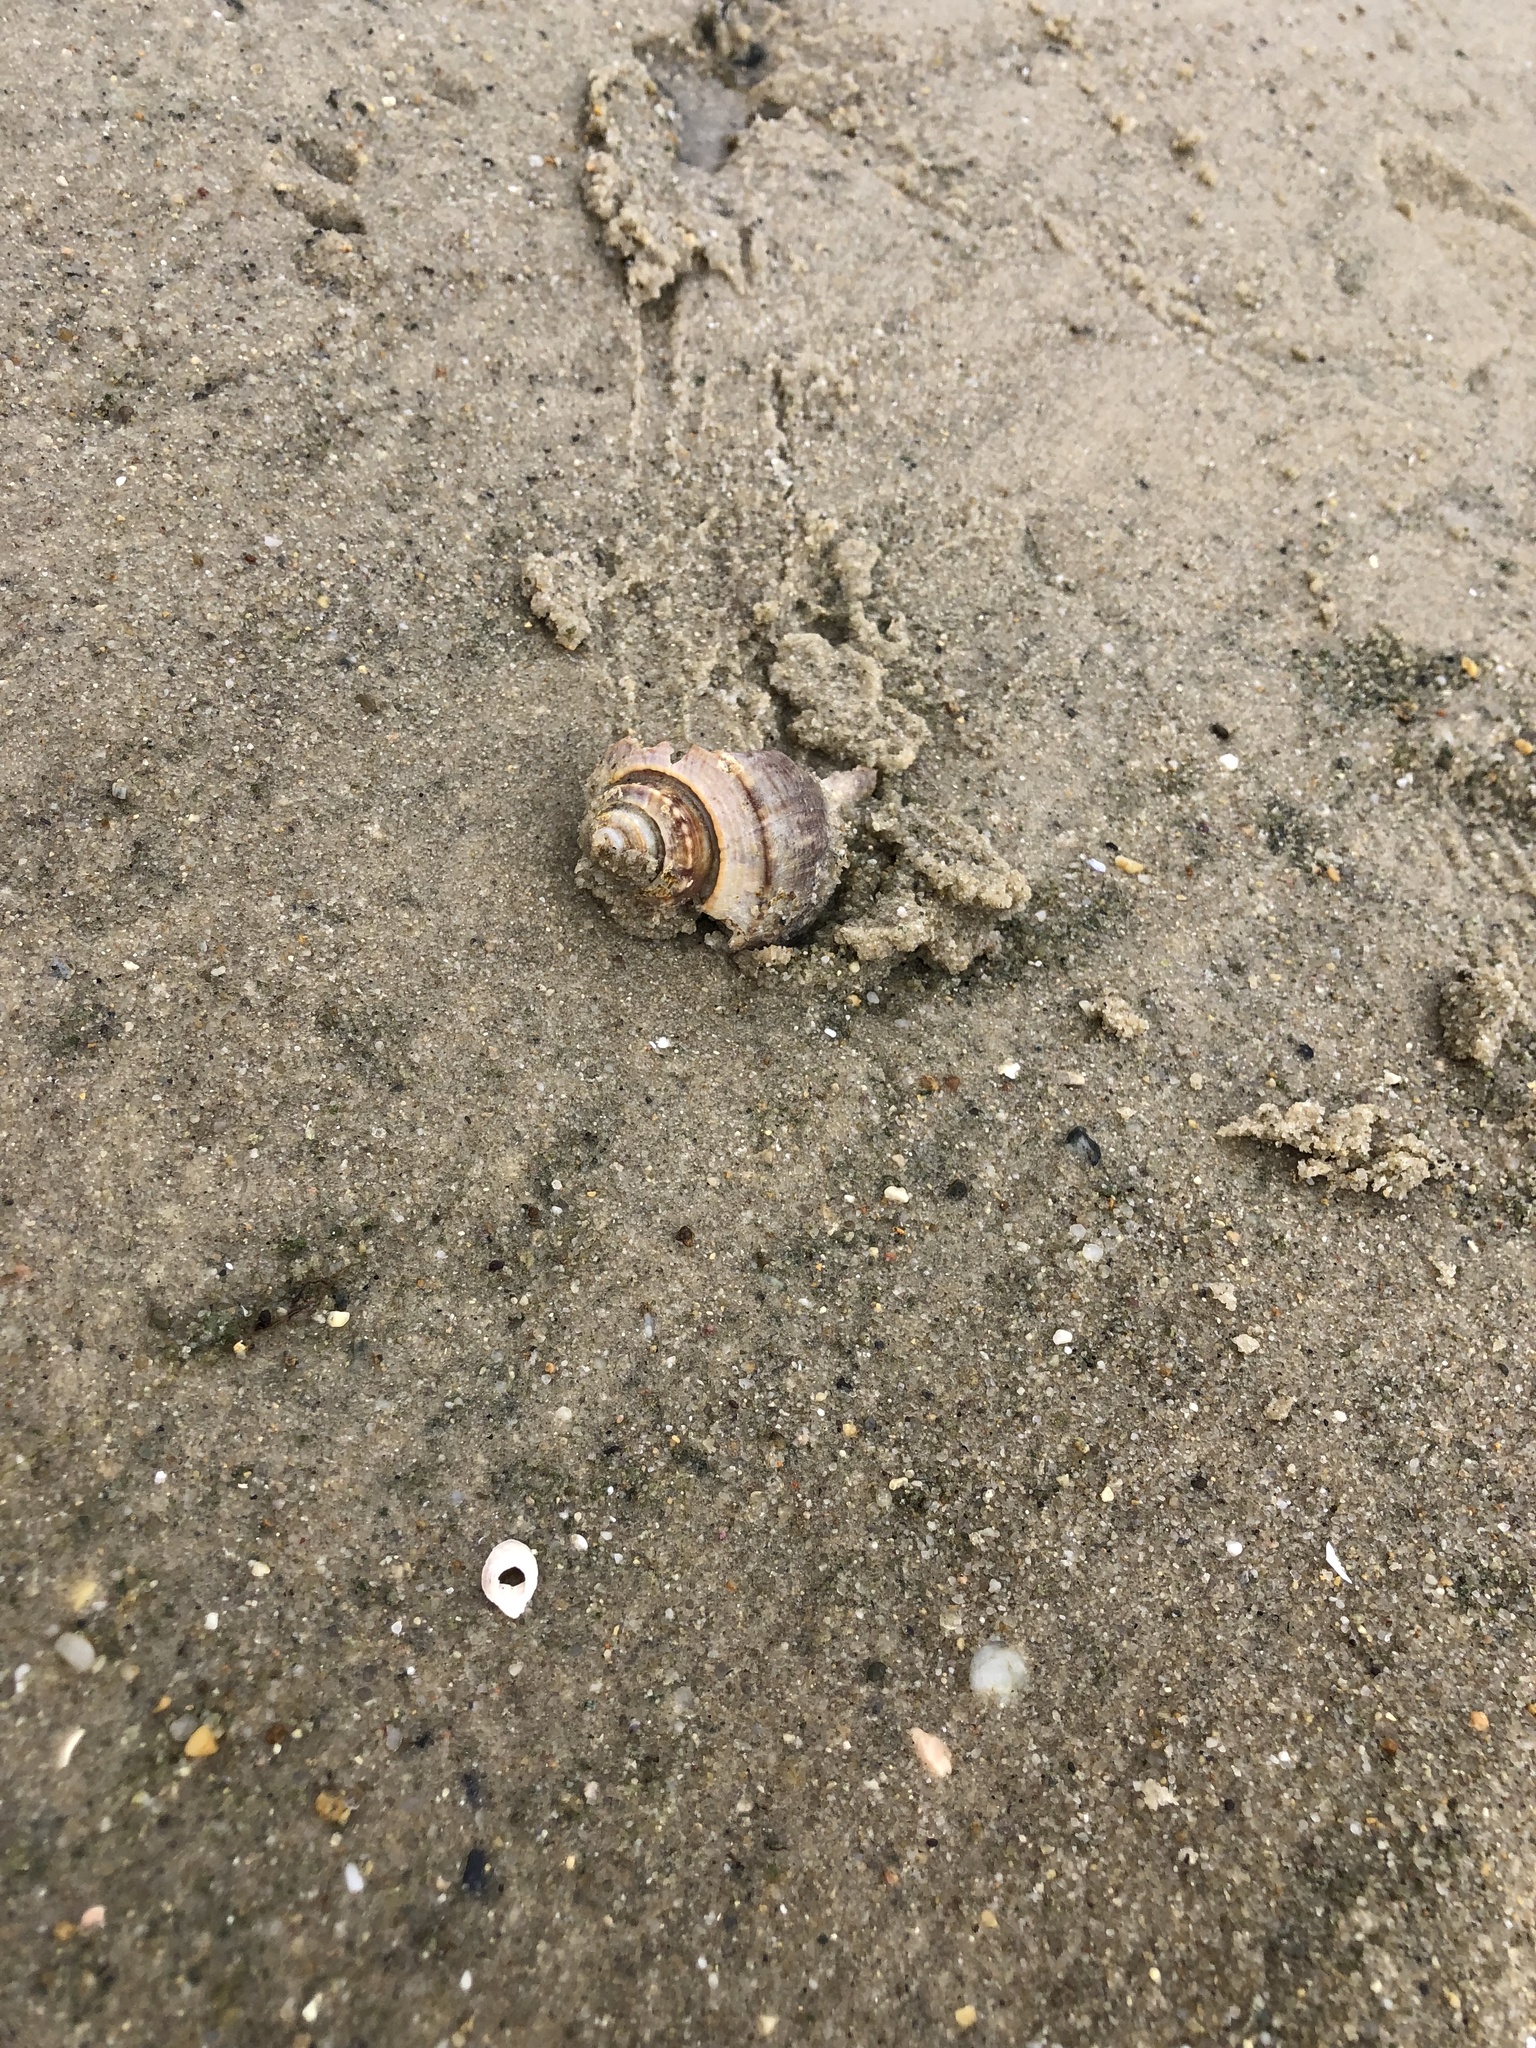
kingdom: Animalia
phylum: Mollusca
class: Gastropoda
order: Neogastropoda
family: Busyconidae
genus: Busycotypus
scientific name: Busycotypus canaliculatus
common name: Channeled whelk
